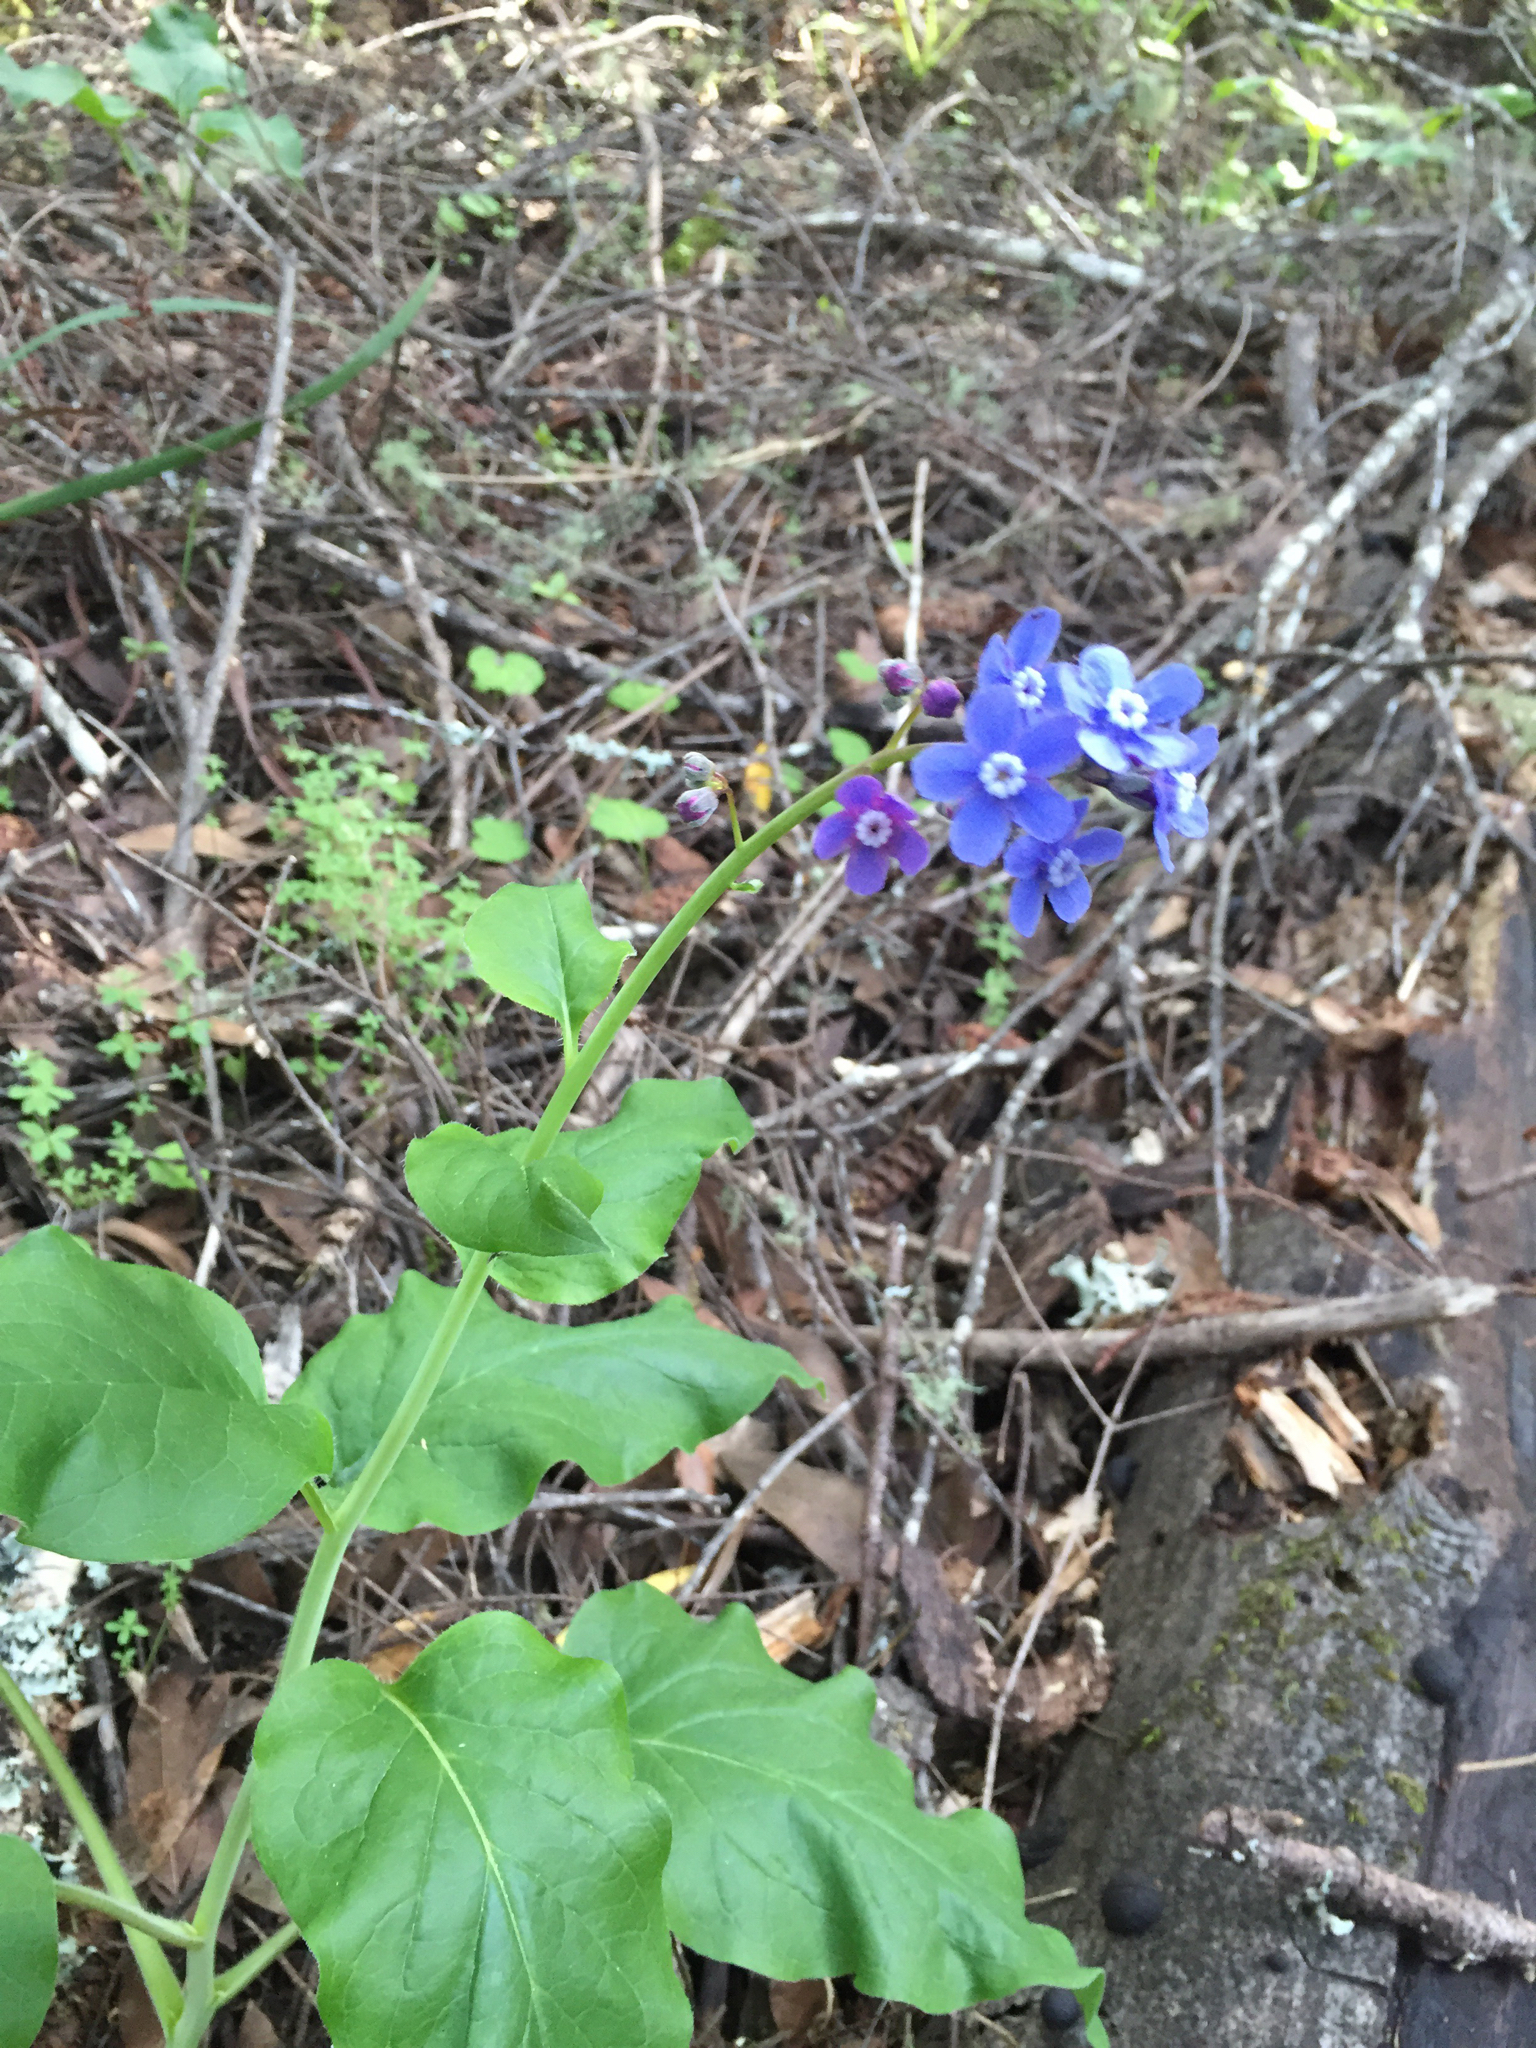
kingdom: Plantae
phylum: Tracheophyta
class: Magnoliopsida
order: Boraginales
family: Boraginaceae
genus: Adelinia
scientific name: Adelinia grande
